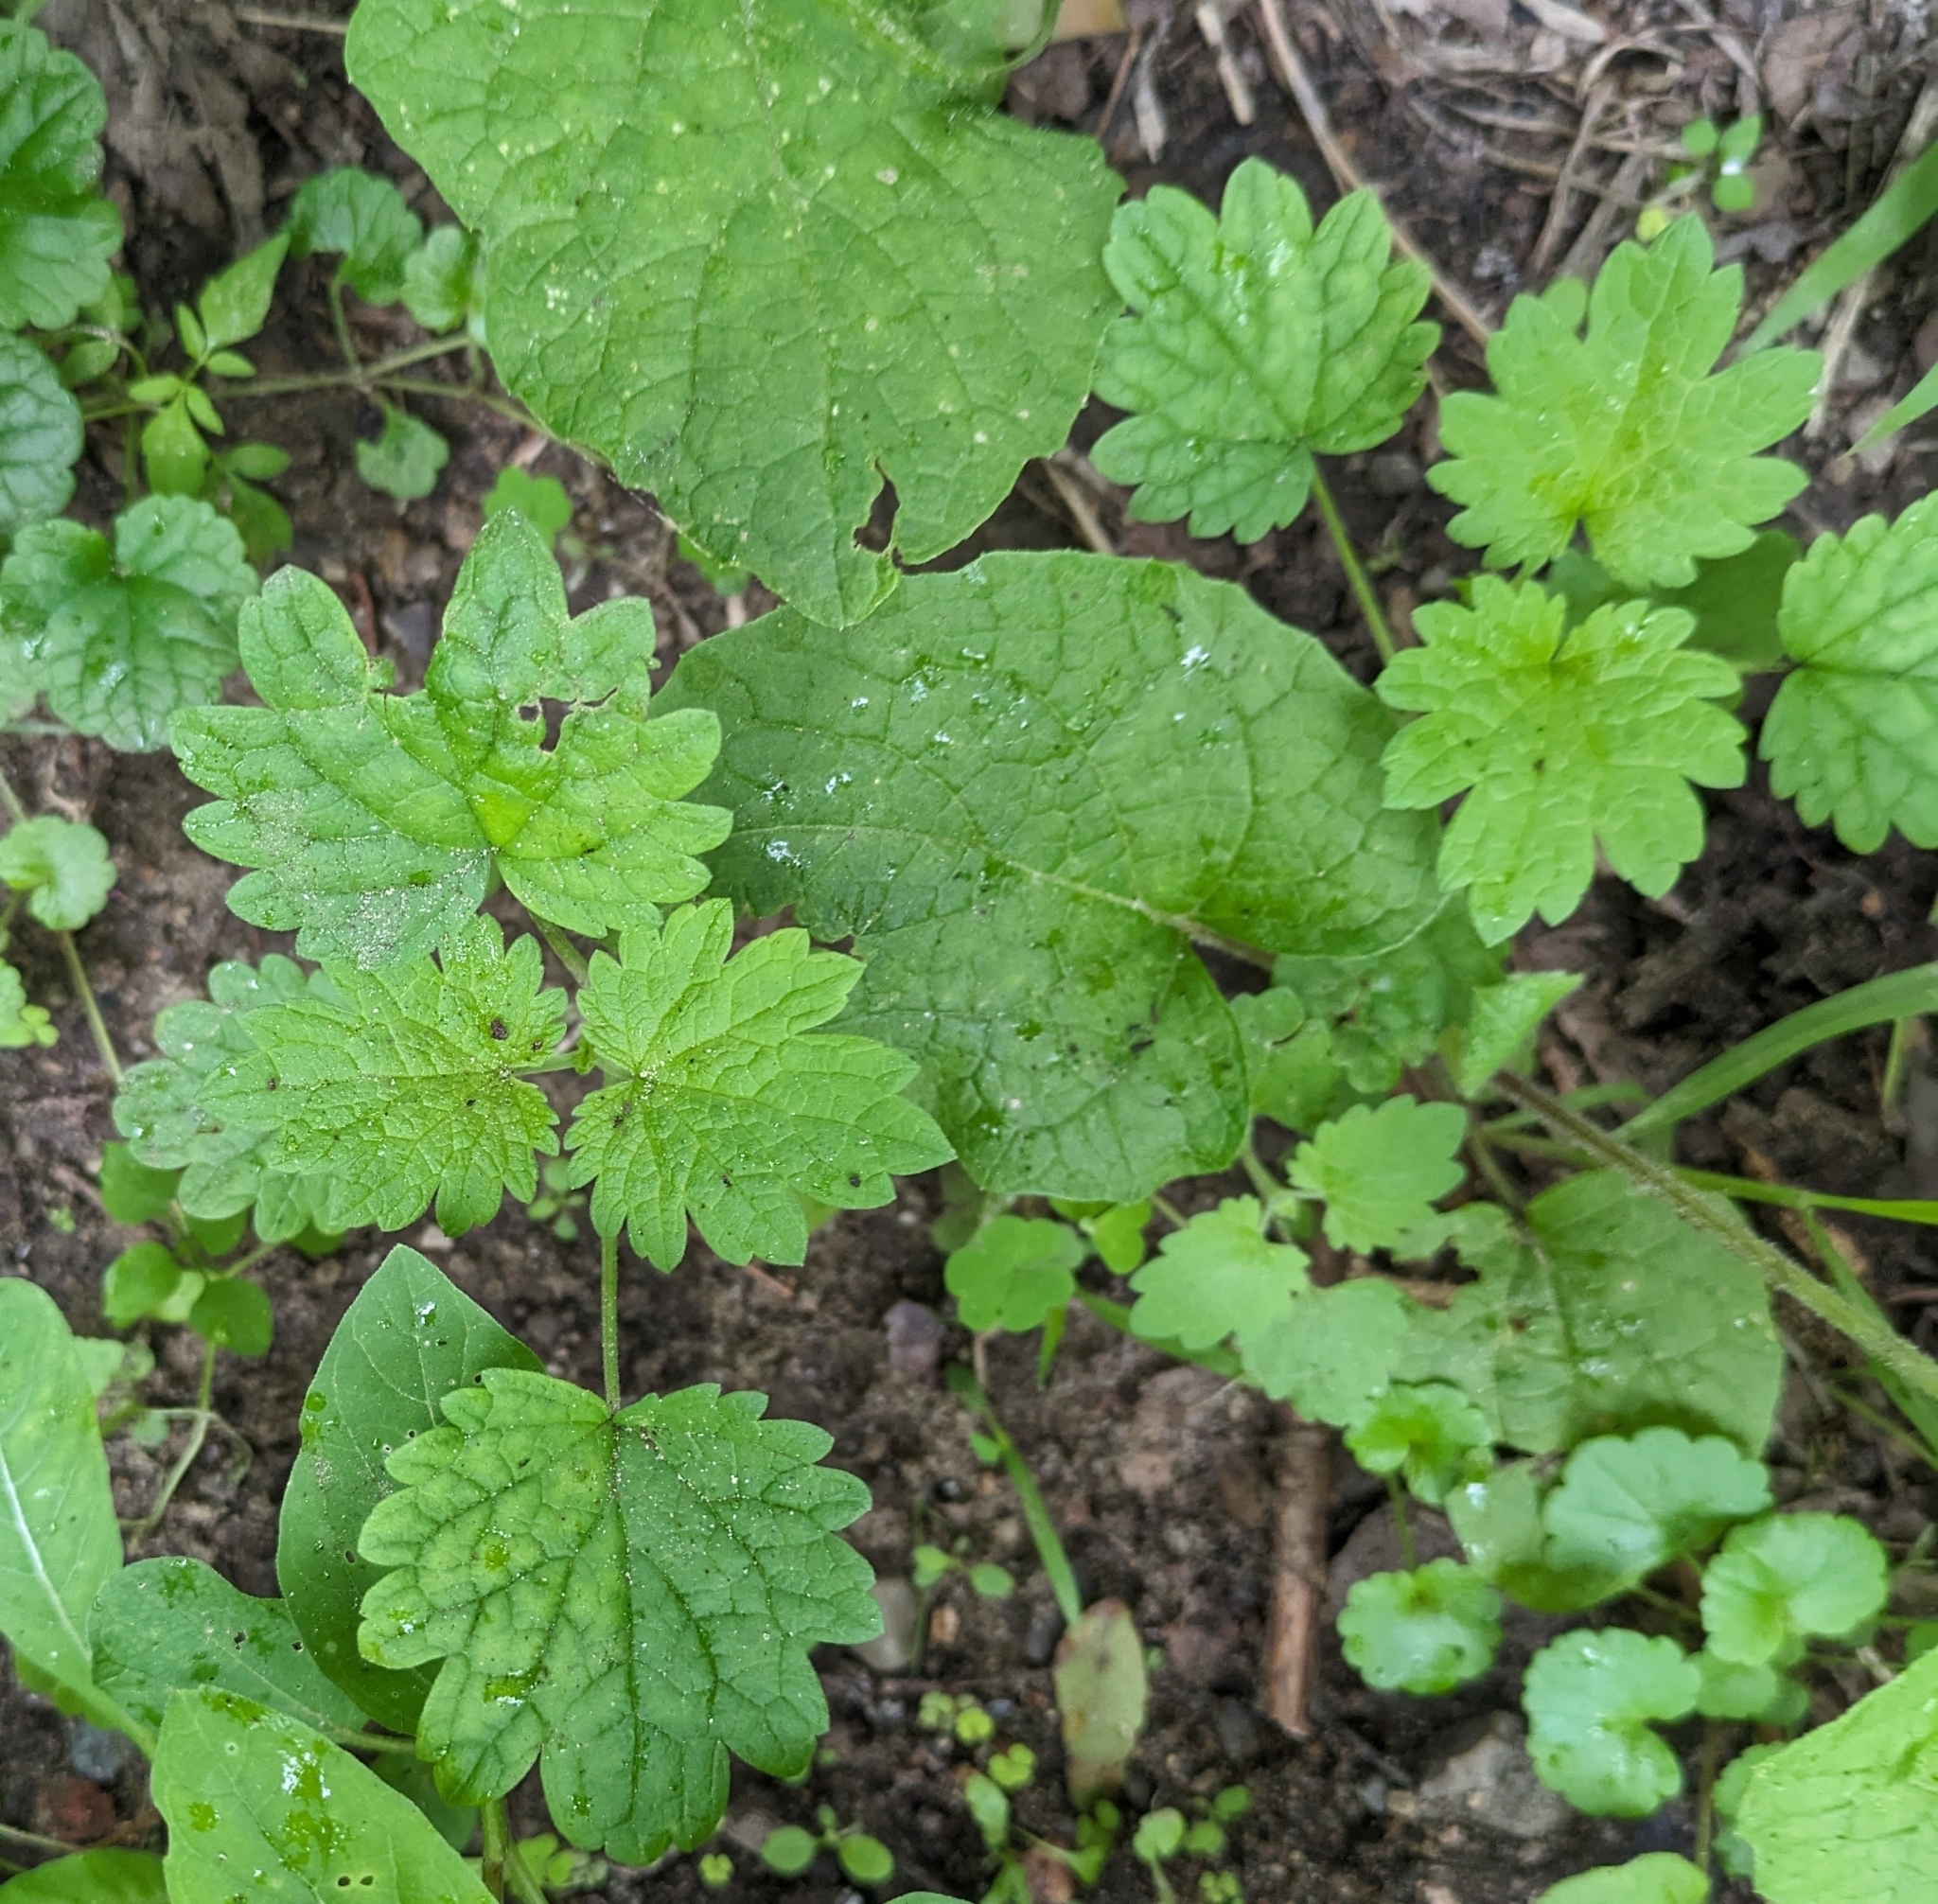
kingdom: Plantae
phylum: Tracheophyta
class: Magnoliopsida
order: Lamiales
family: Lamiaceae
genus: Leonurus
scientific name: Leonurus cardiaca
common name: Motherwort
